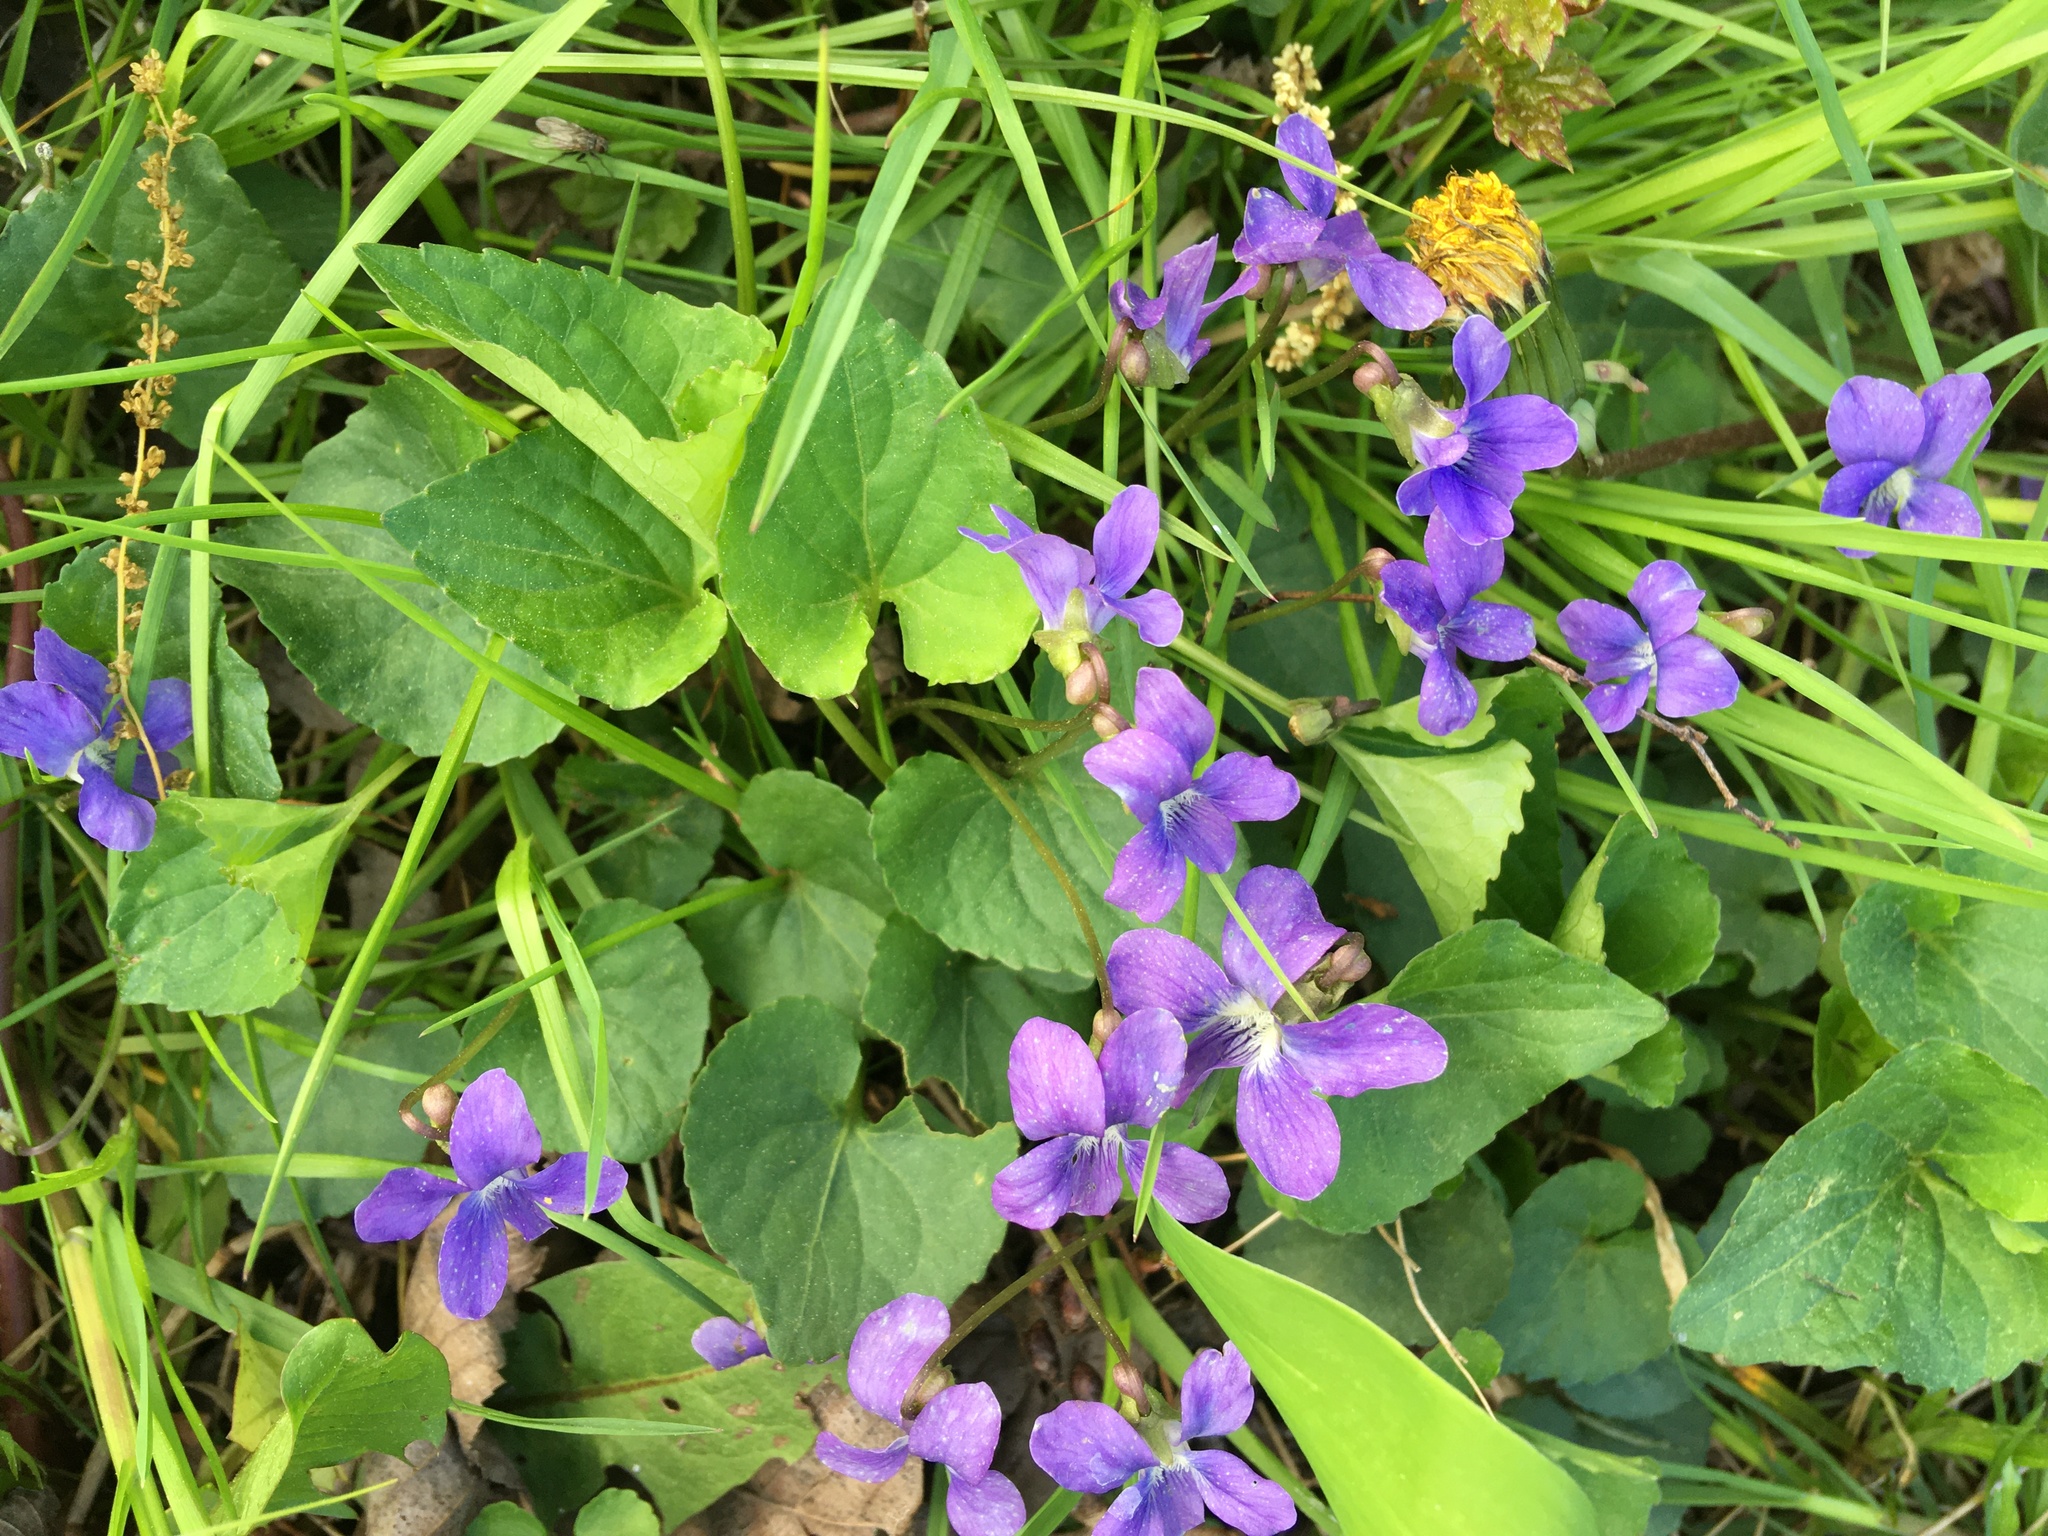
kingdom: Plantae
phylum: Tracheophyta
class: Magnoliopsida
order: Malpighiales
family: Violaceae
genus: Viola
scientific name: Viola sororia
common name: Dooryard violet
